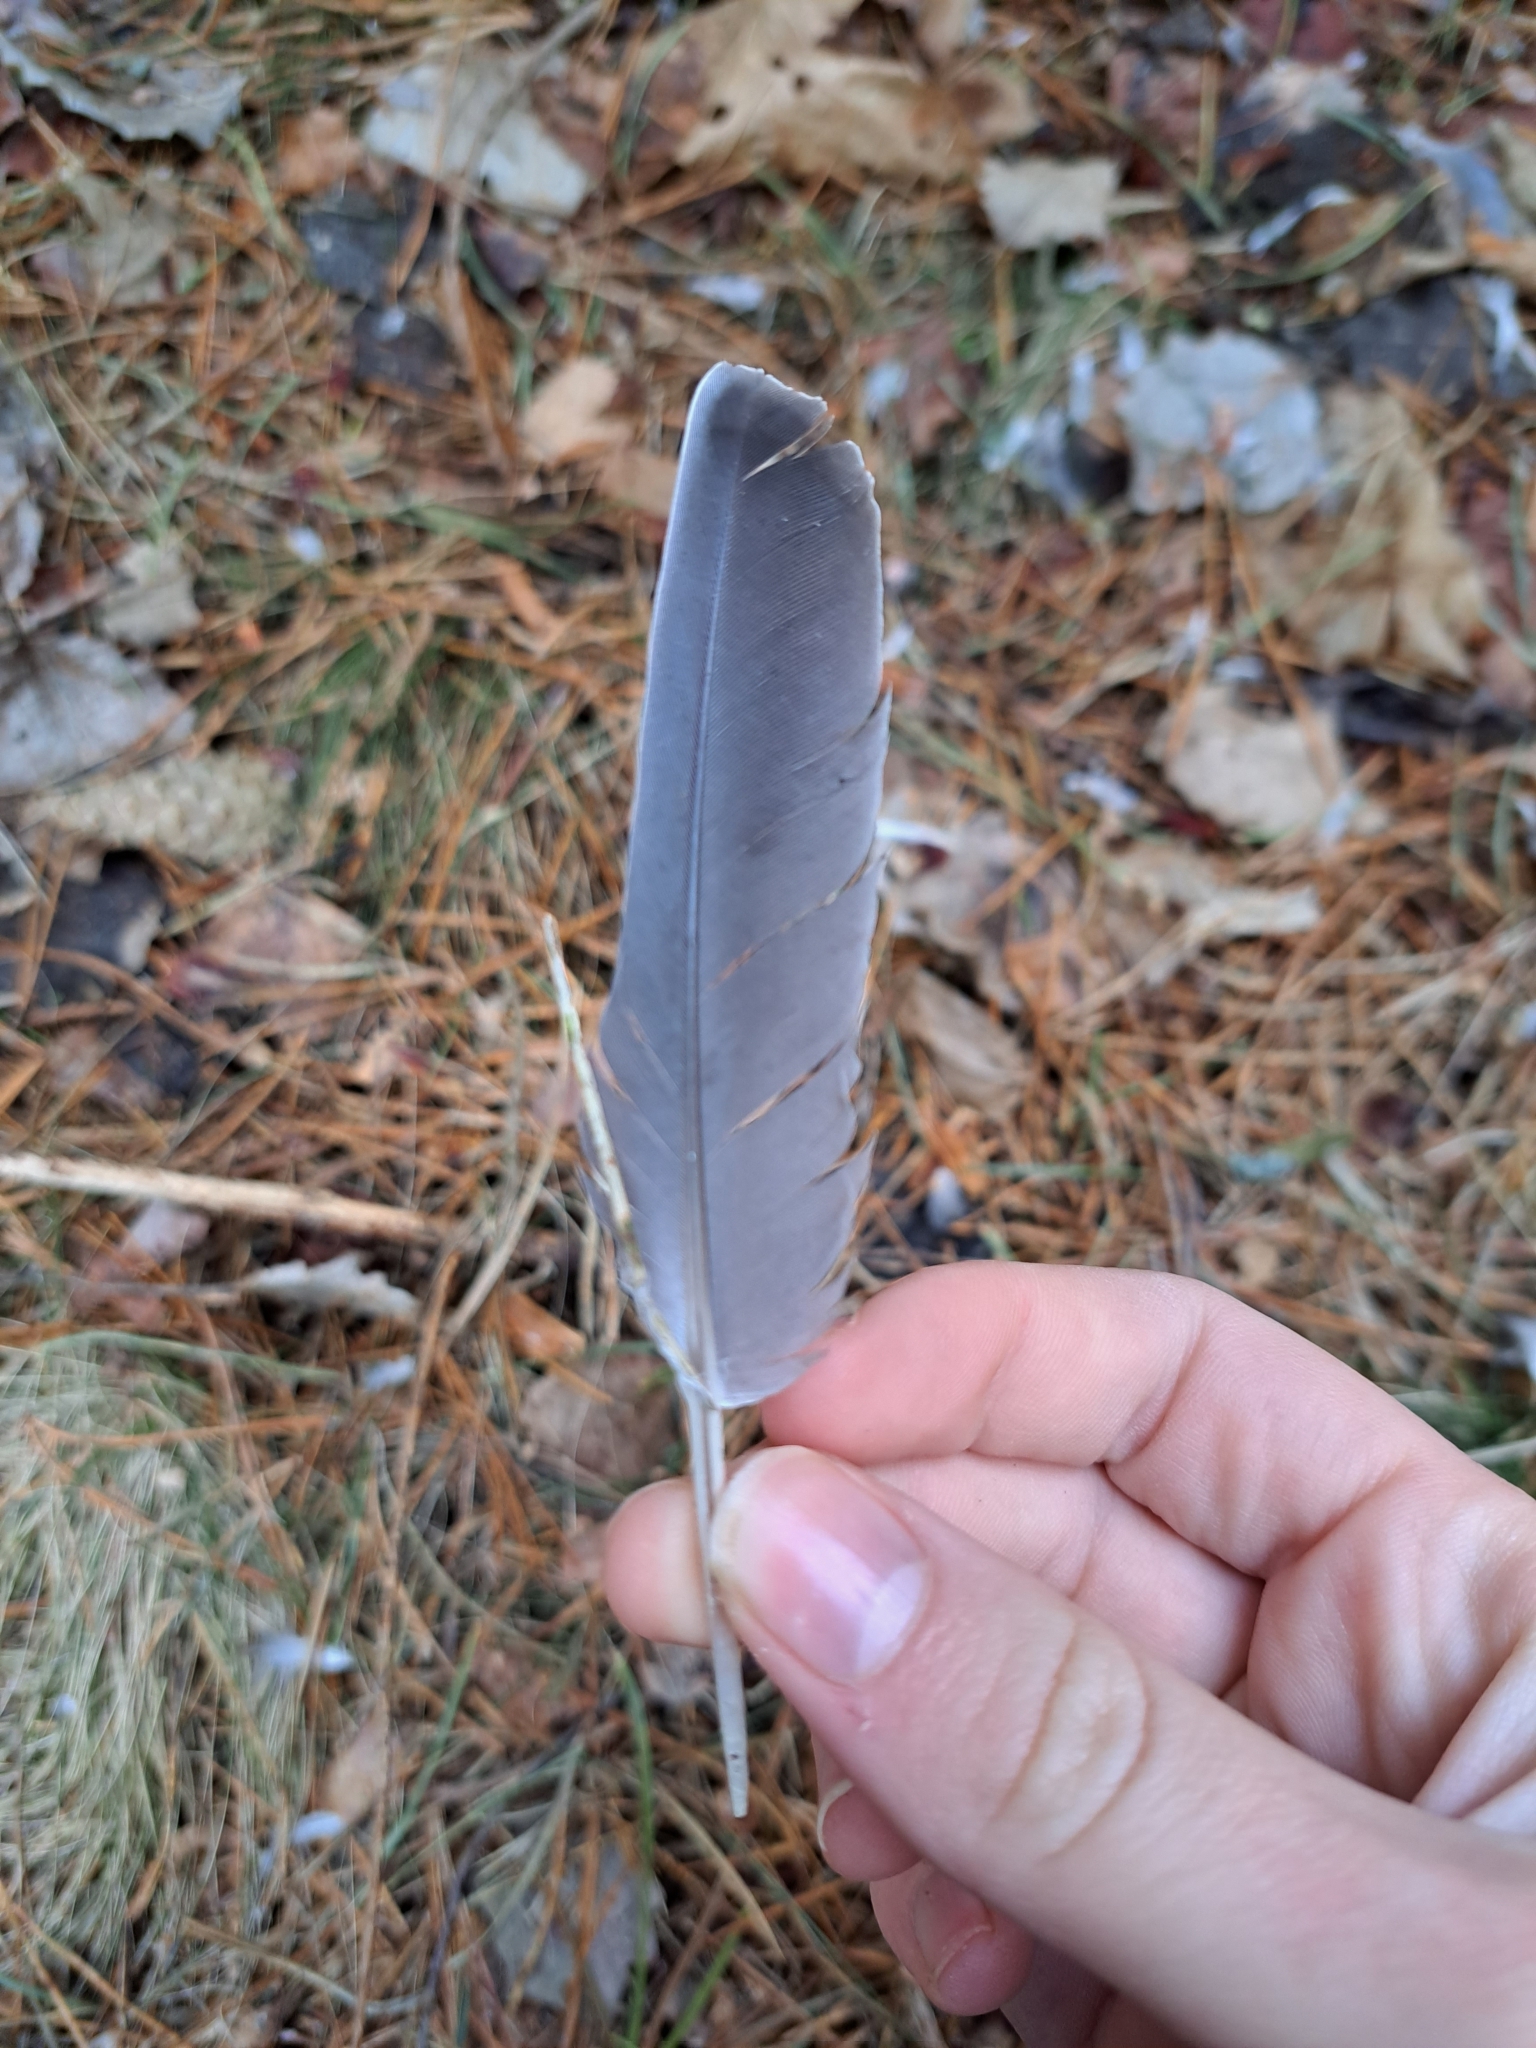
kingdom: Animalia
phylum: Chordata
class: Aves
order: Columbiformes
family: Columbidae
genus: Columba
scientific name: Columba livia
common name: Rock pigeon
